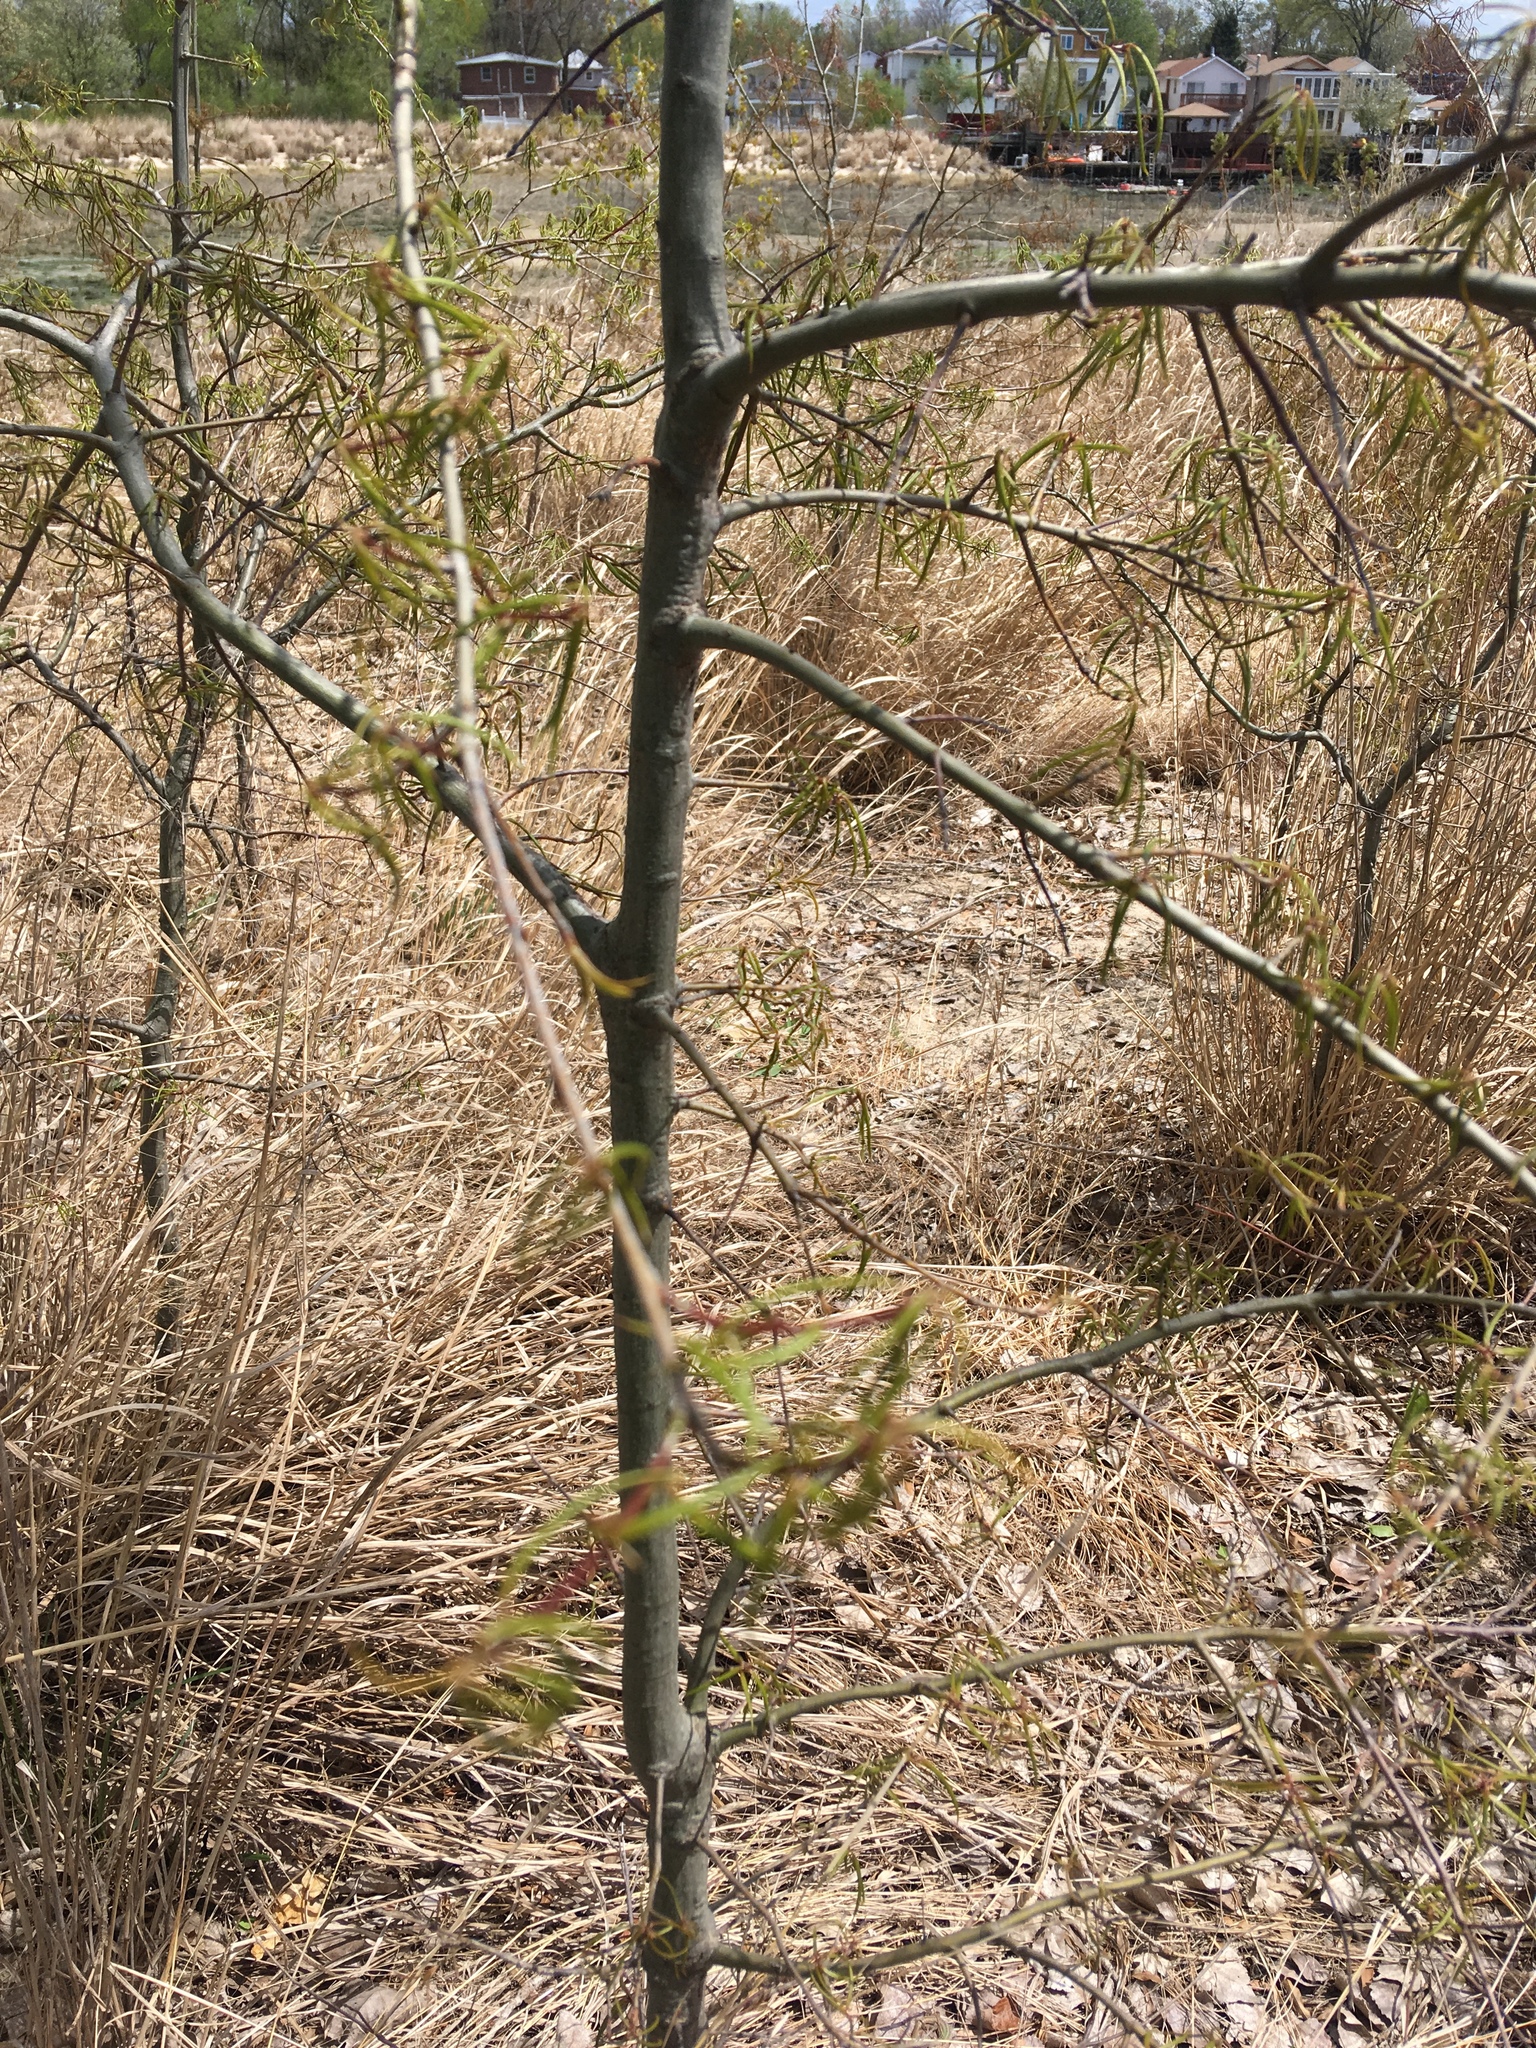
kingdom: Plantae
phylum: Tracheophyta
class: Magnoliopsida
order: Fagales
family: Fagaceae
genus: Quercus
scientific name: Quercus phellos
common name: Willow oak
